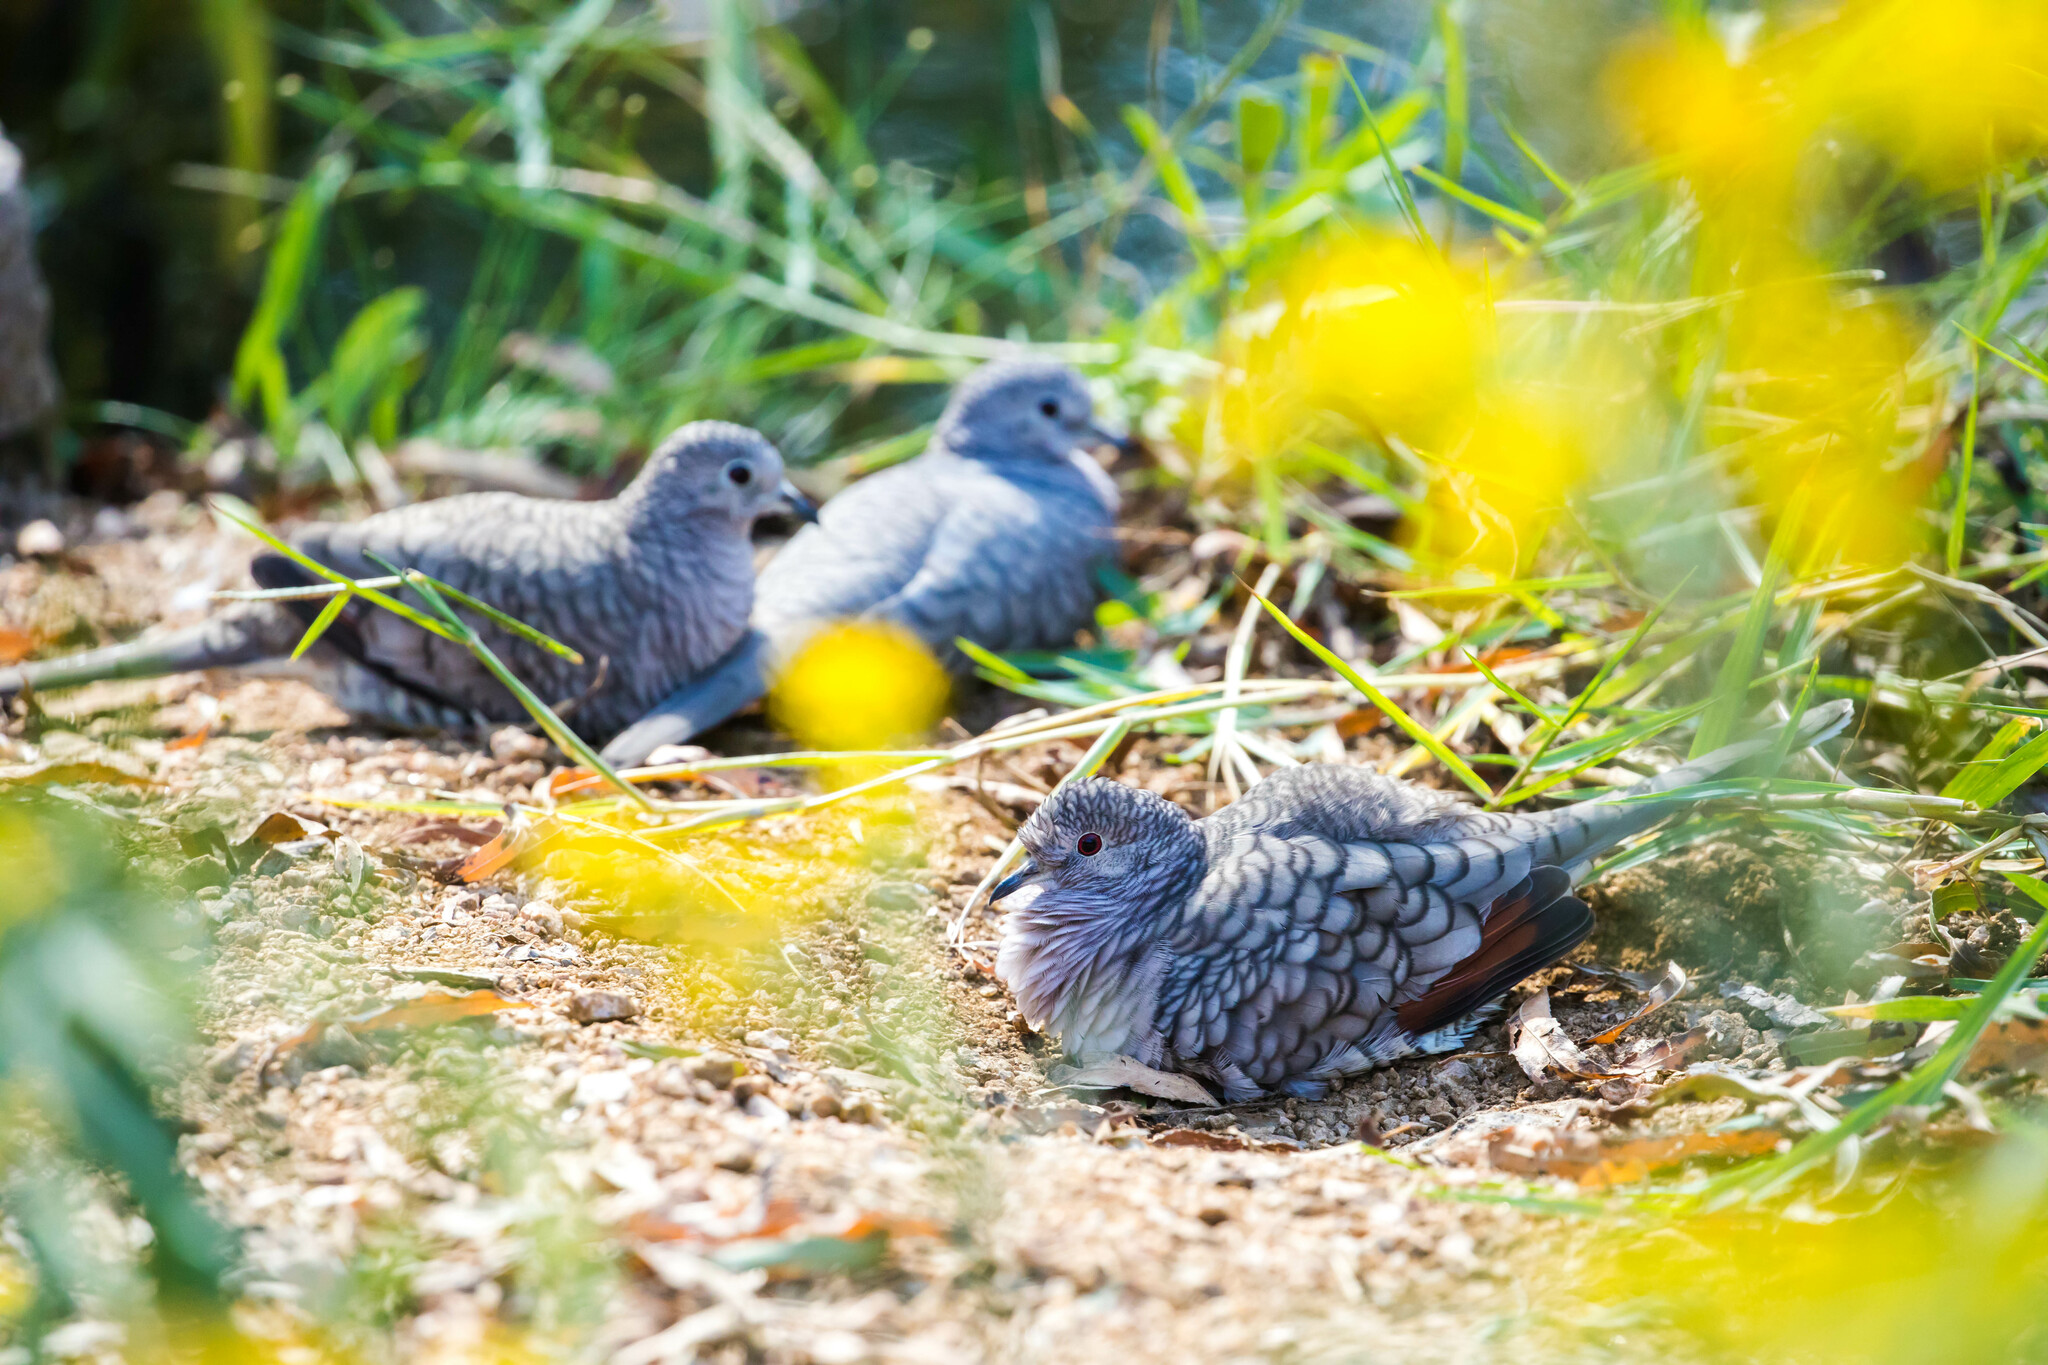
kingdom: Animalia
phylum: Chordata
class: Aves
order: Columbiformes
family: Columbidae
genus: Columbina
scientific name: Columbina inca
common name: Inca dove
